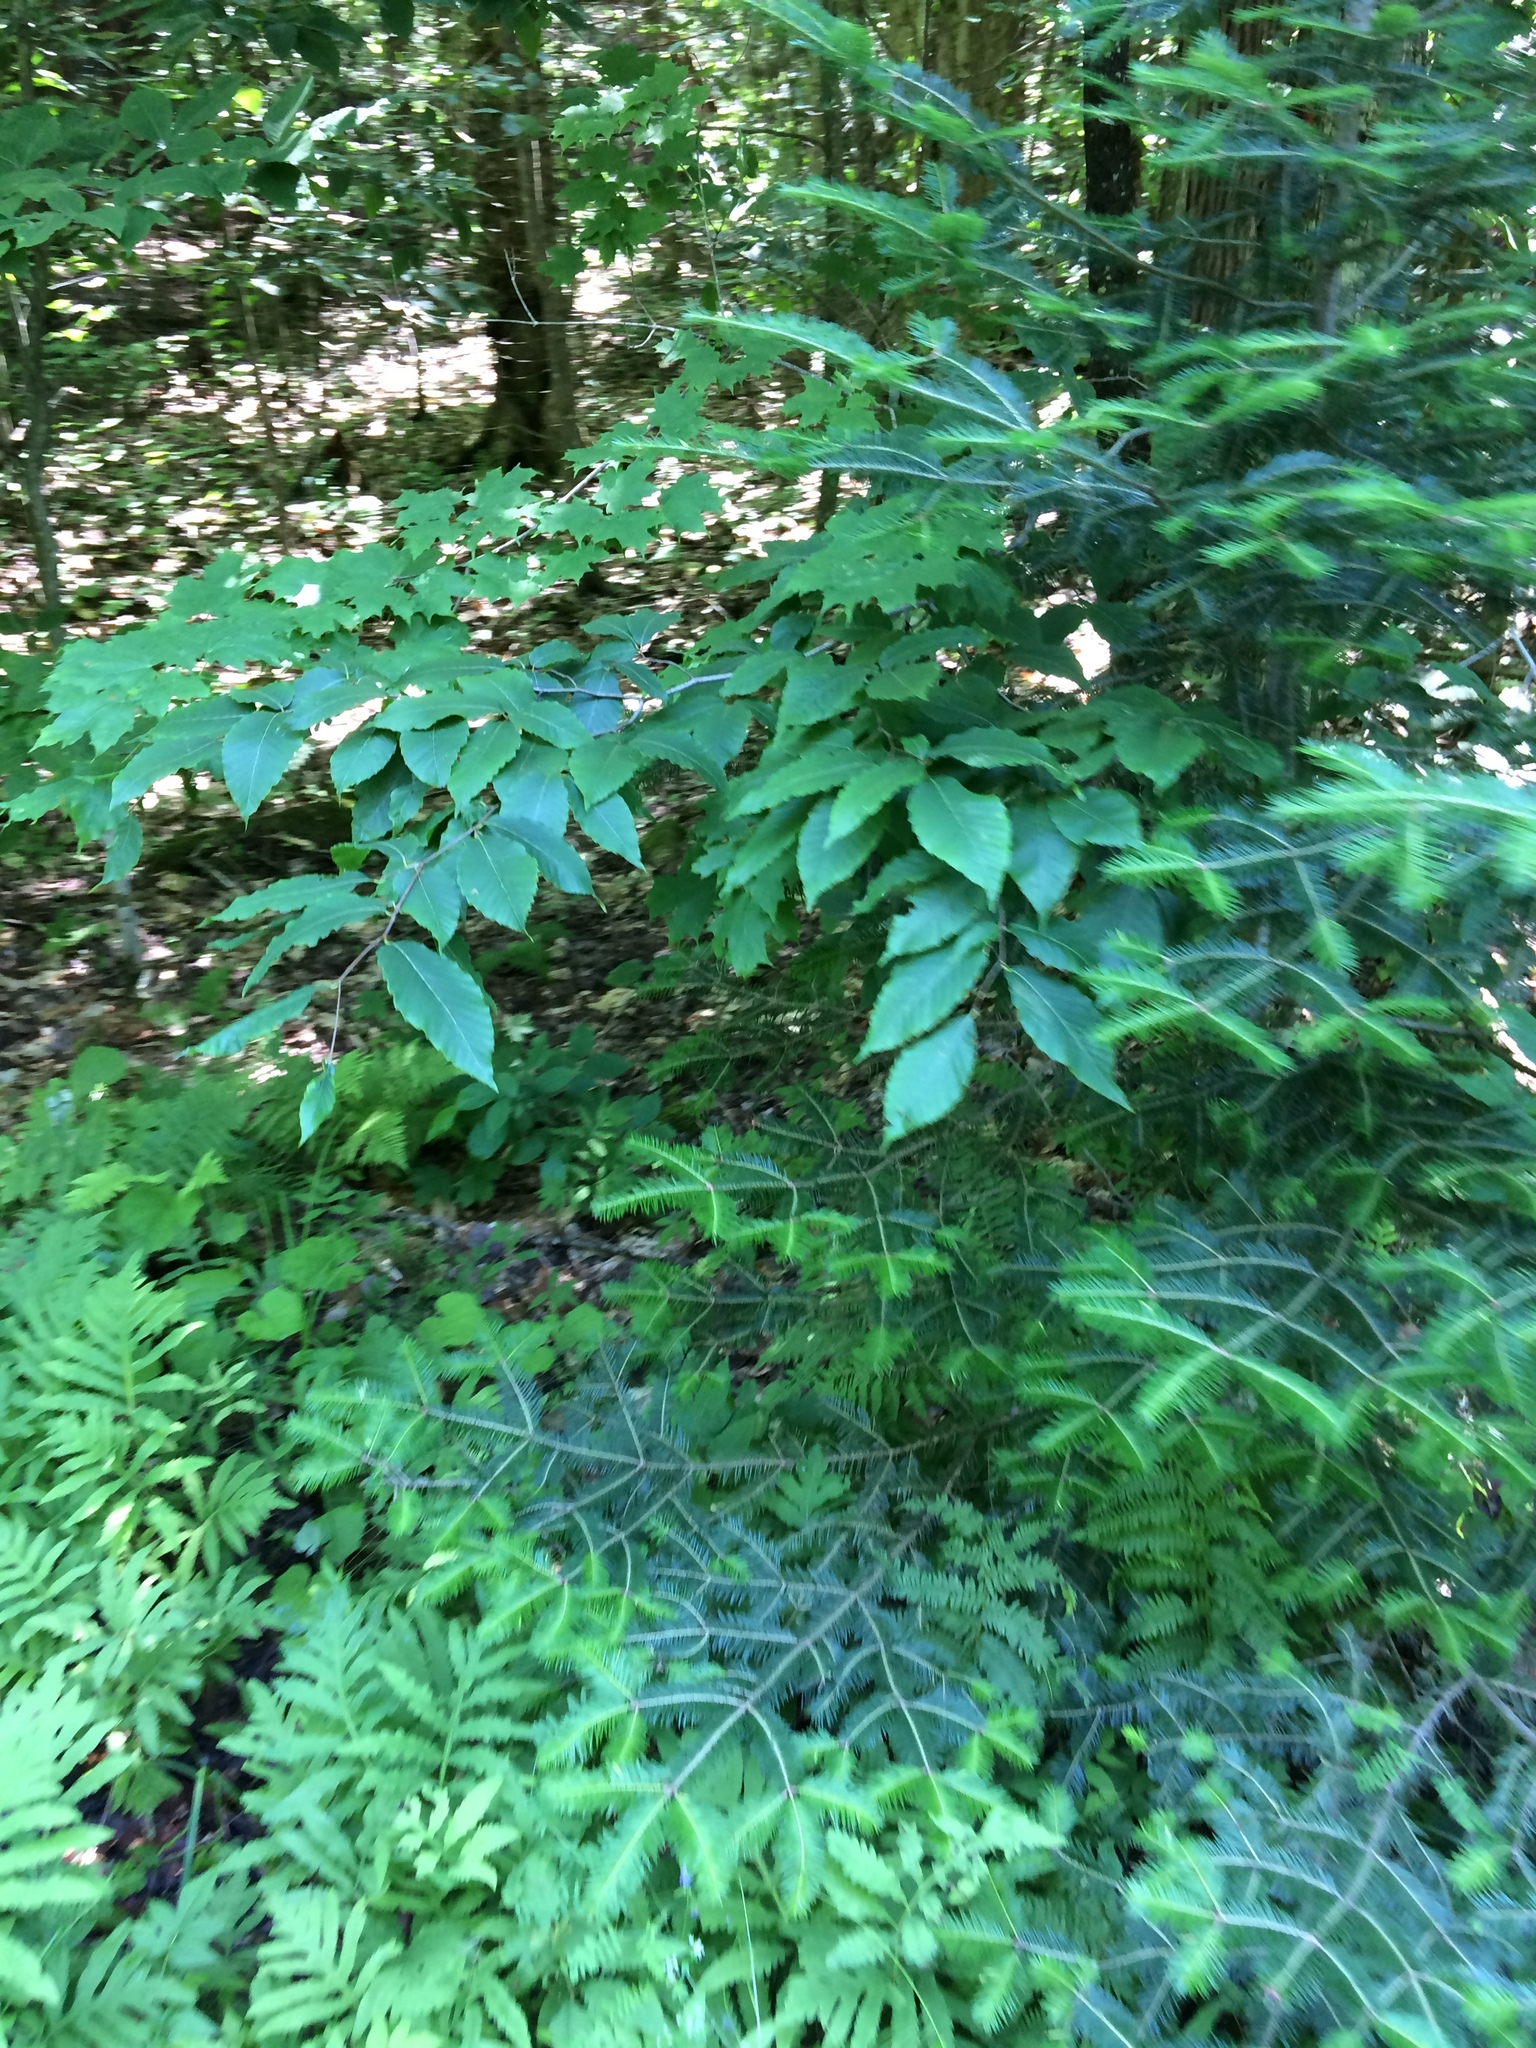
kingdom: Plantae
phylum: Tracheophyta
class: Magnoliopsida
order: Fagales
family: Fagaceae
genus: Fagus
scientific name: Fagus grandifolia
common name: American beech
